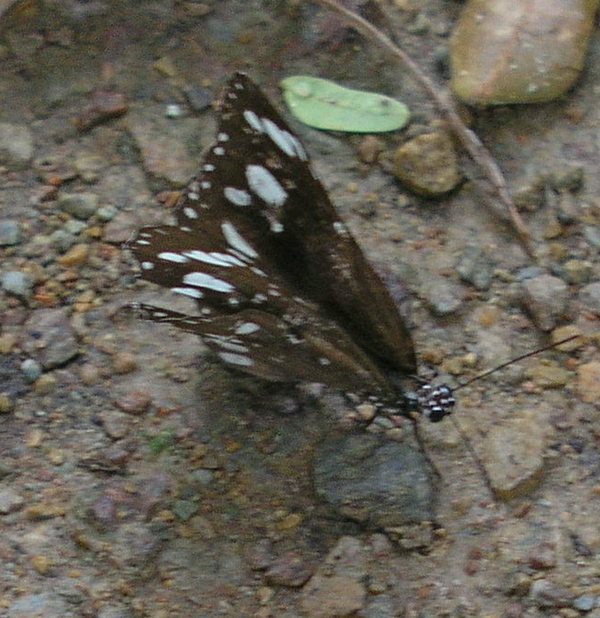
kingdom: Animalia
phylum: Arthropoda
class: Insecta
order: Lepidoptera
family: Nymphalidae
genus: Euploea
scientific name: Euploea core
